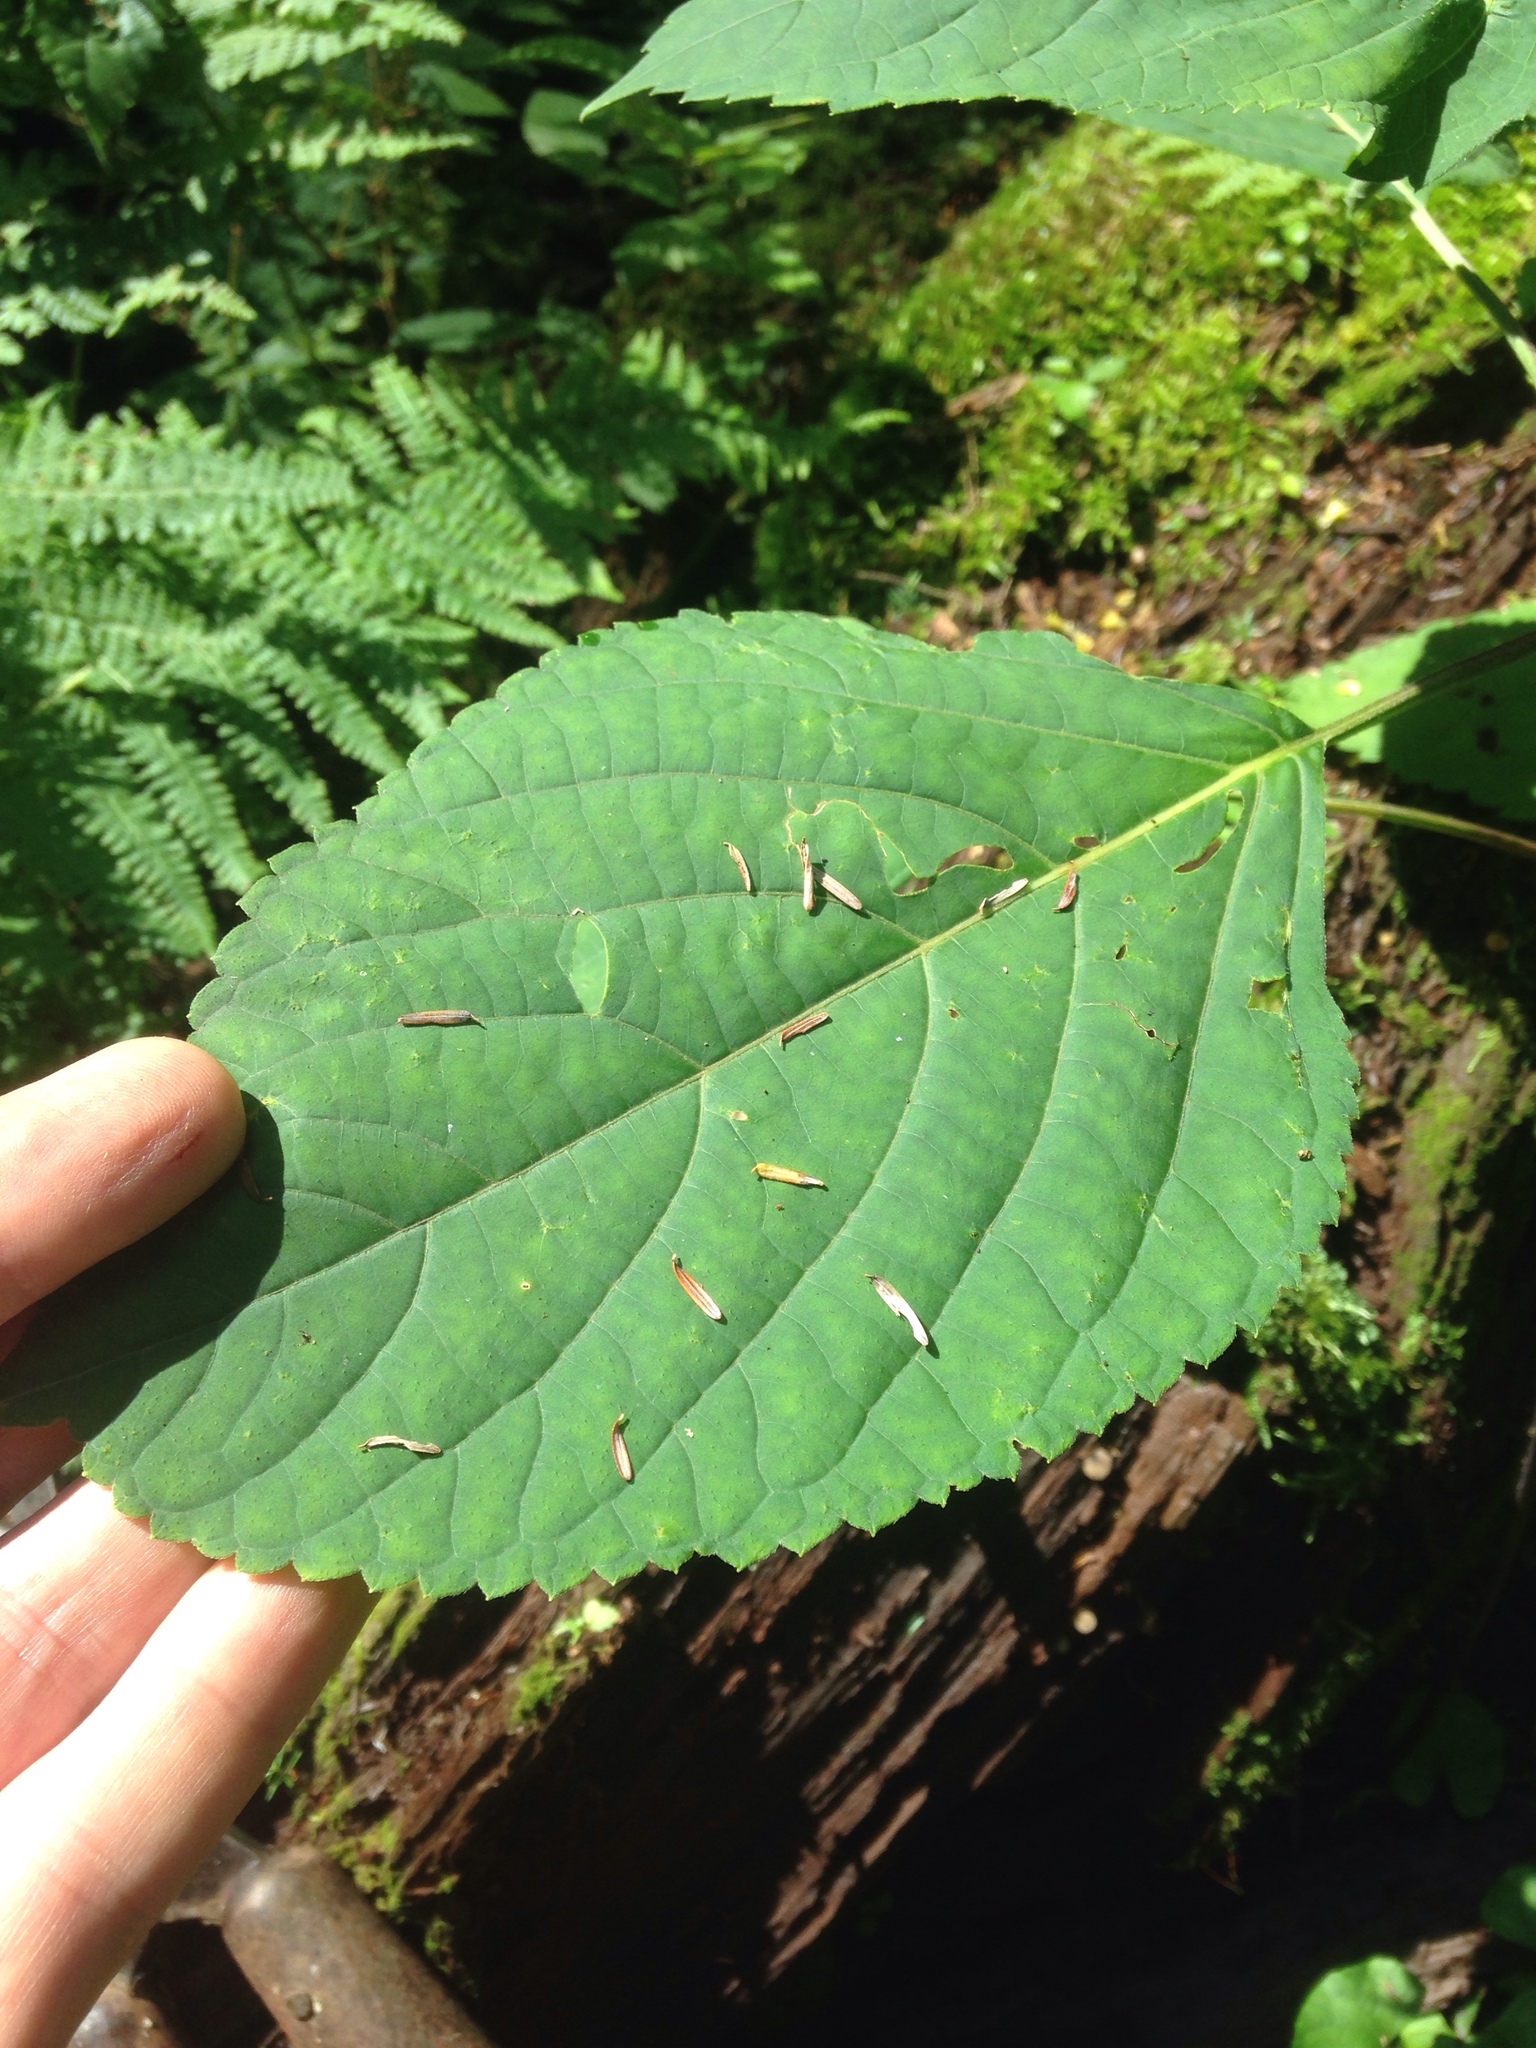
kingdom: Plantae
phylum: Tracheophyta
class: Magnoliopsida
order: Lamiales
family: Lamiaceae
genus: Collinsonia
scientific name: Collinsonia canadensis
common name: Northern horsebalm
